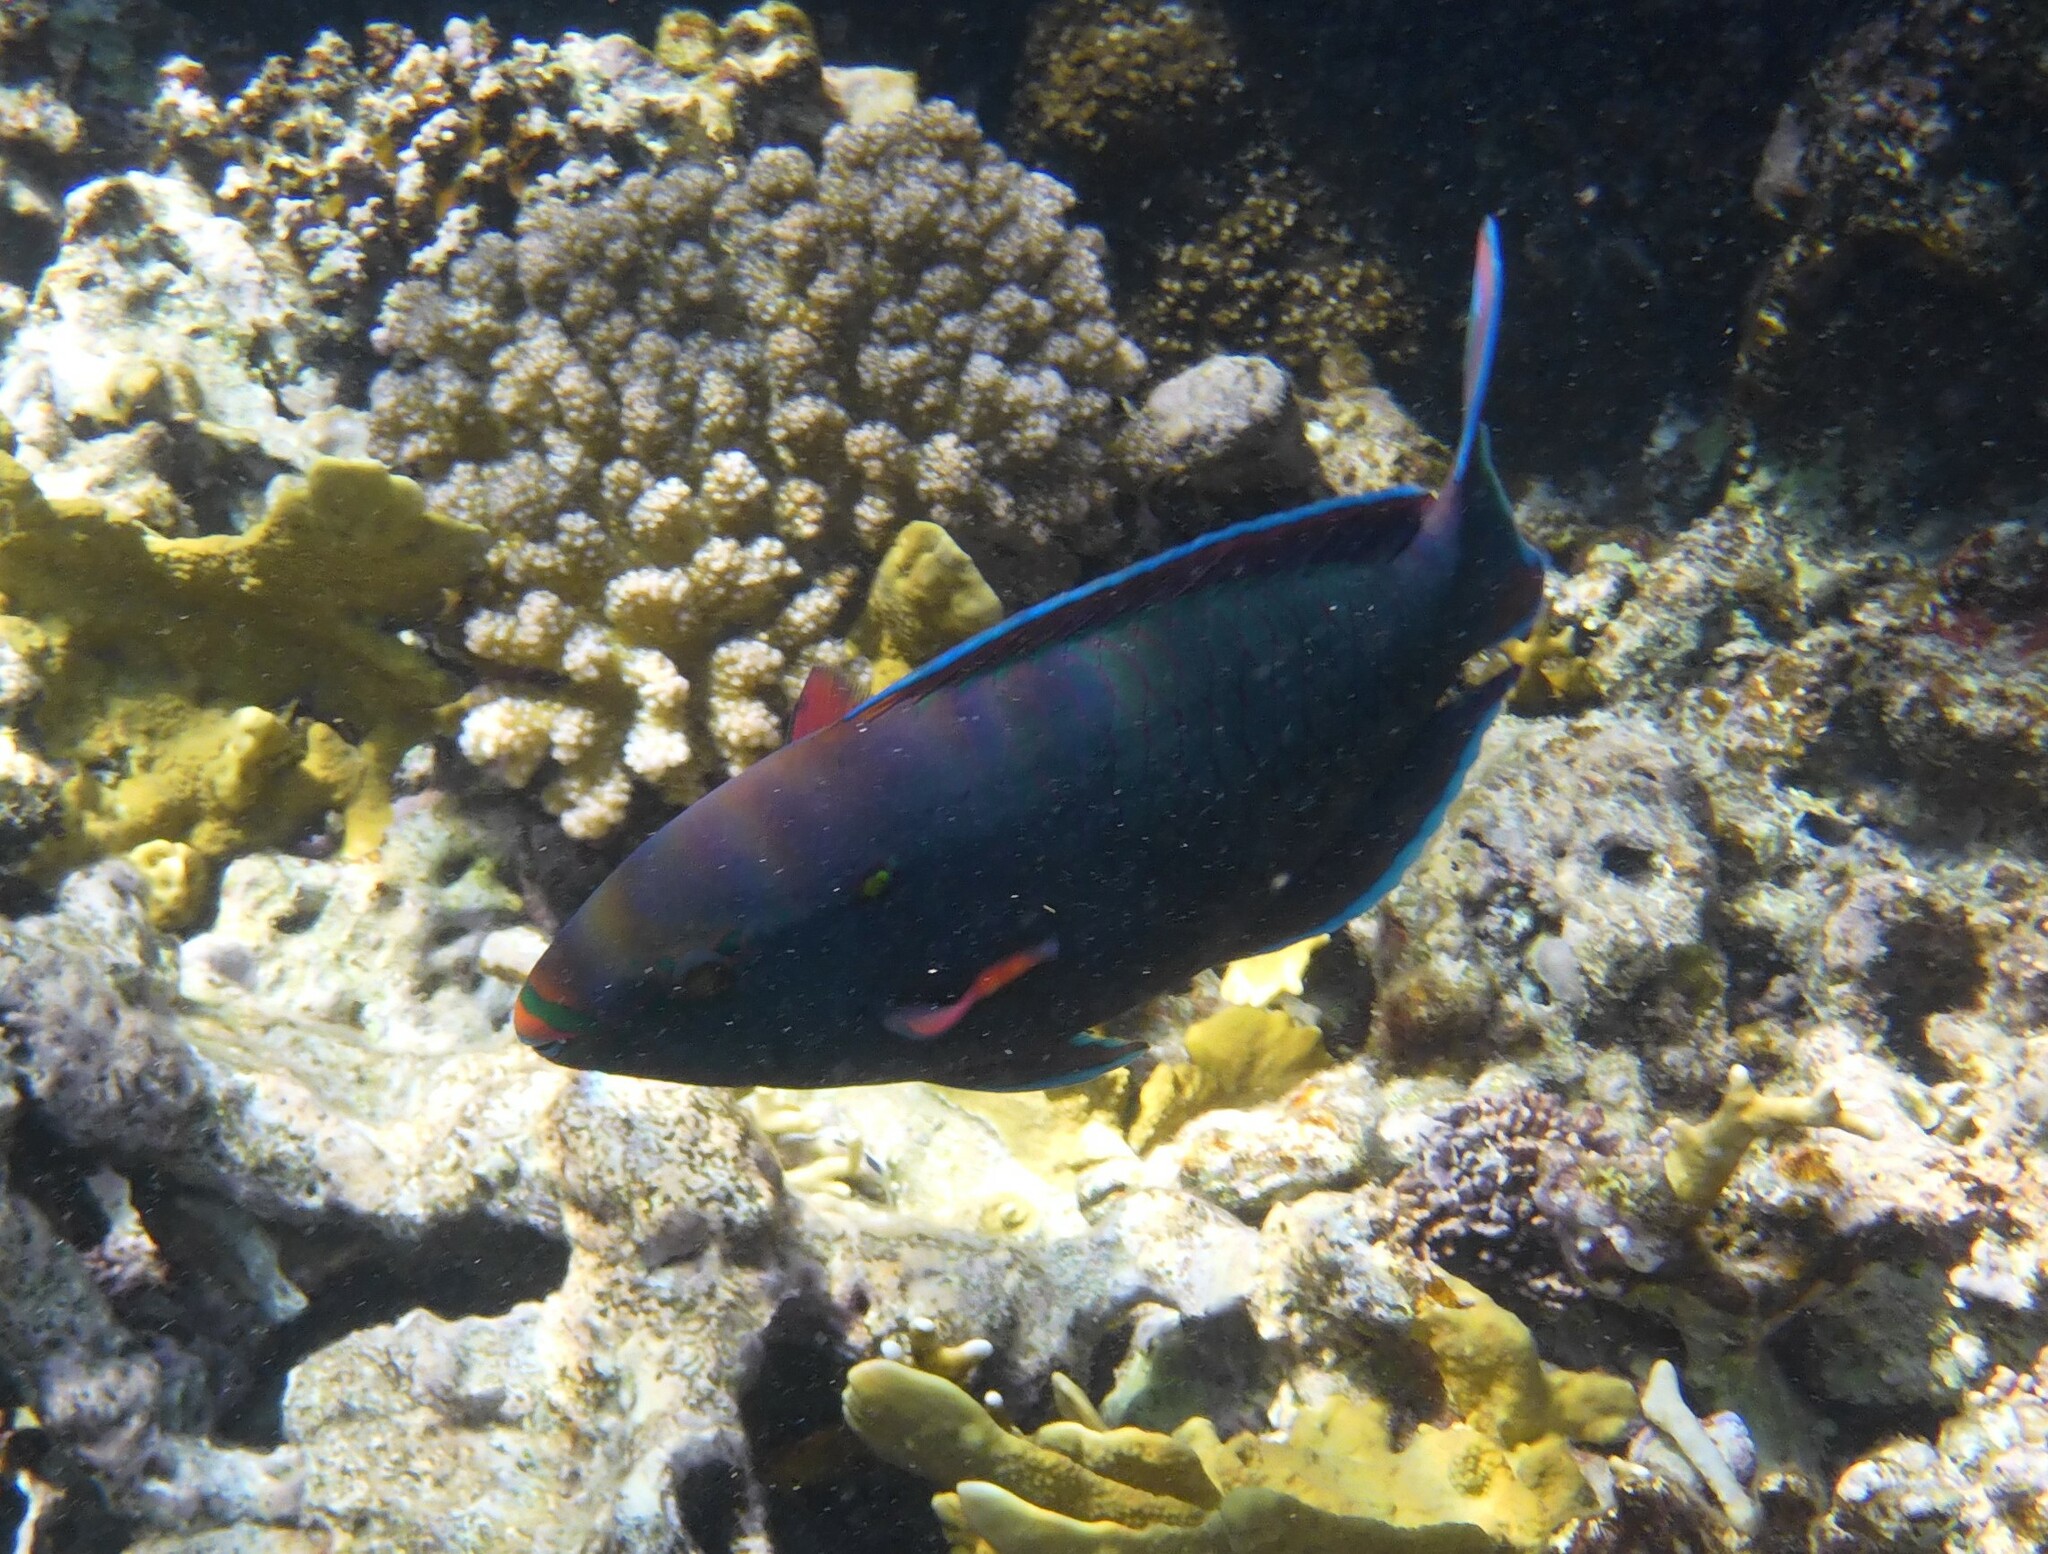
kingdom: Animalia
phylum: Chordata
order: Perciformes
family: Scaridae
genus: Scarus
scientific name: Scarus niger
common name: Dusky parrotfish
